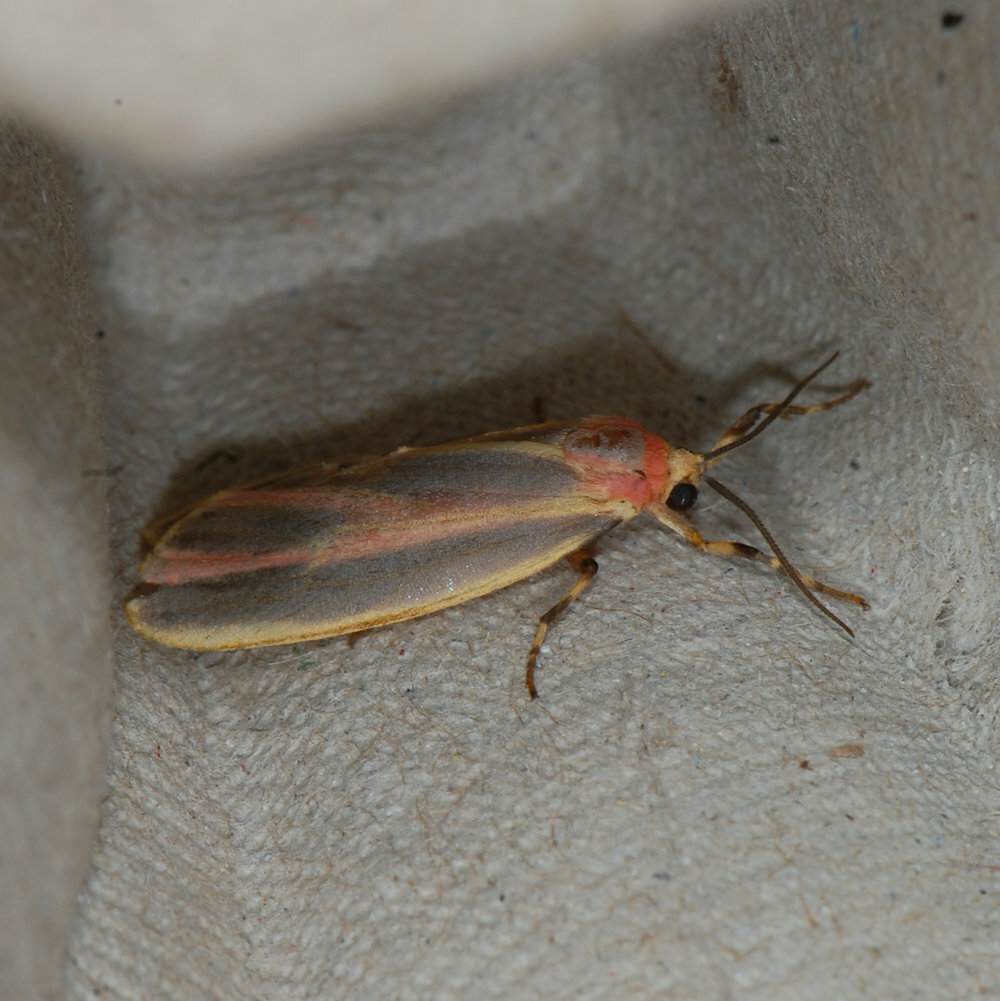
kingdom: Animalia
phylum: Arthropoda
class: Insecta
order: Lepidoptera
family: Erebidae
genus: Hypoprepia
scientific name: Hypoprepia fucosa
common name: Painted lichen moth
